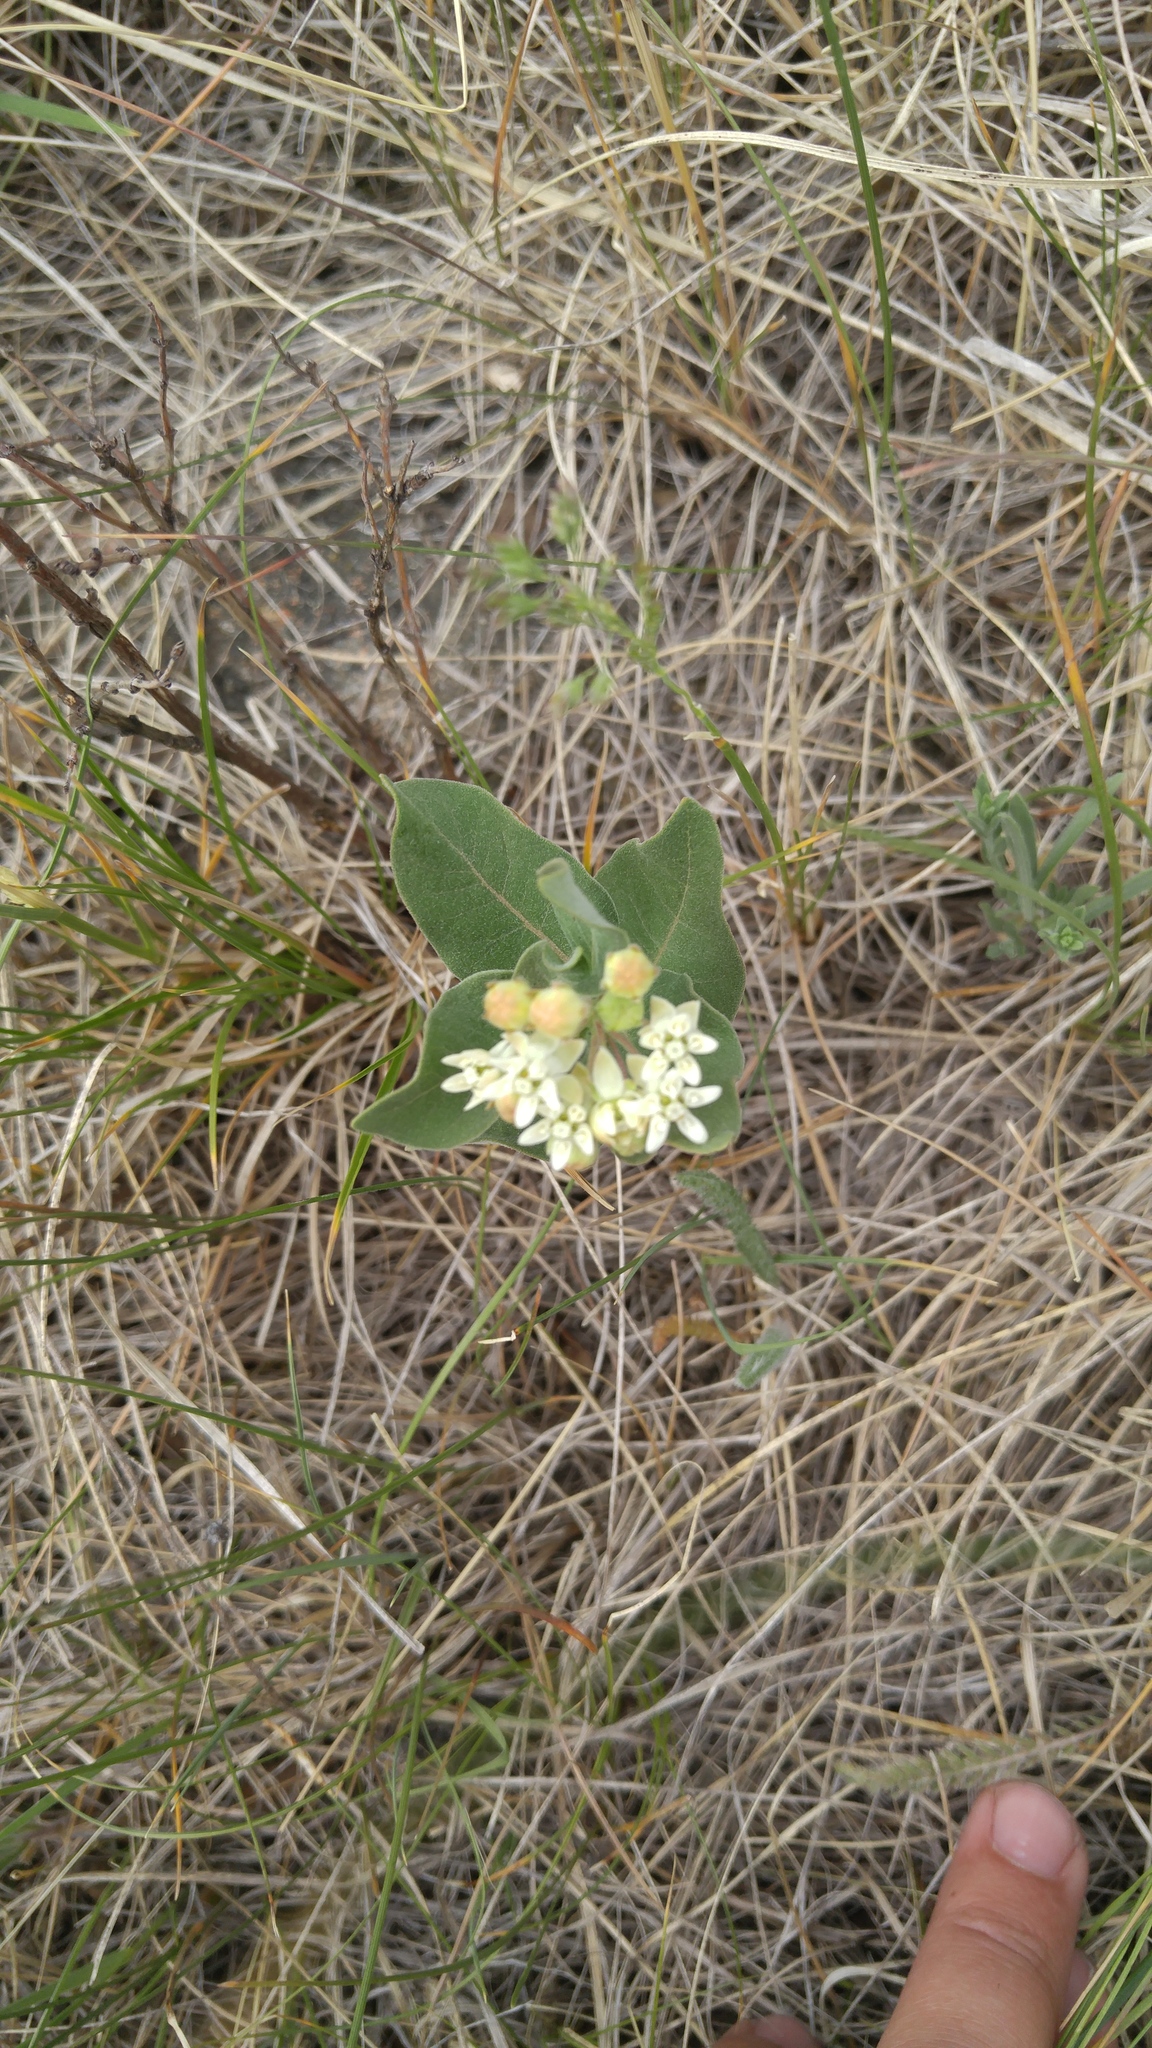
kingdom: Plantae
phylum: Tracheophyta
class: Magnoliopsida
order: Gentianales
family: Apocynaceae
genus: Asclepias
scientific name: Asclepias ovalifolia
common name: Dwarf milkweed
